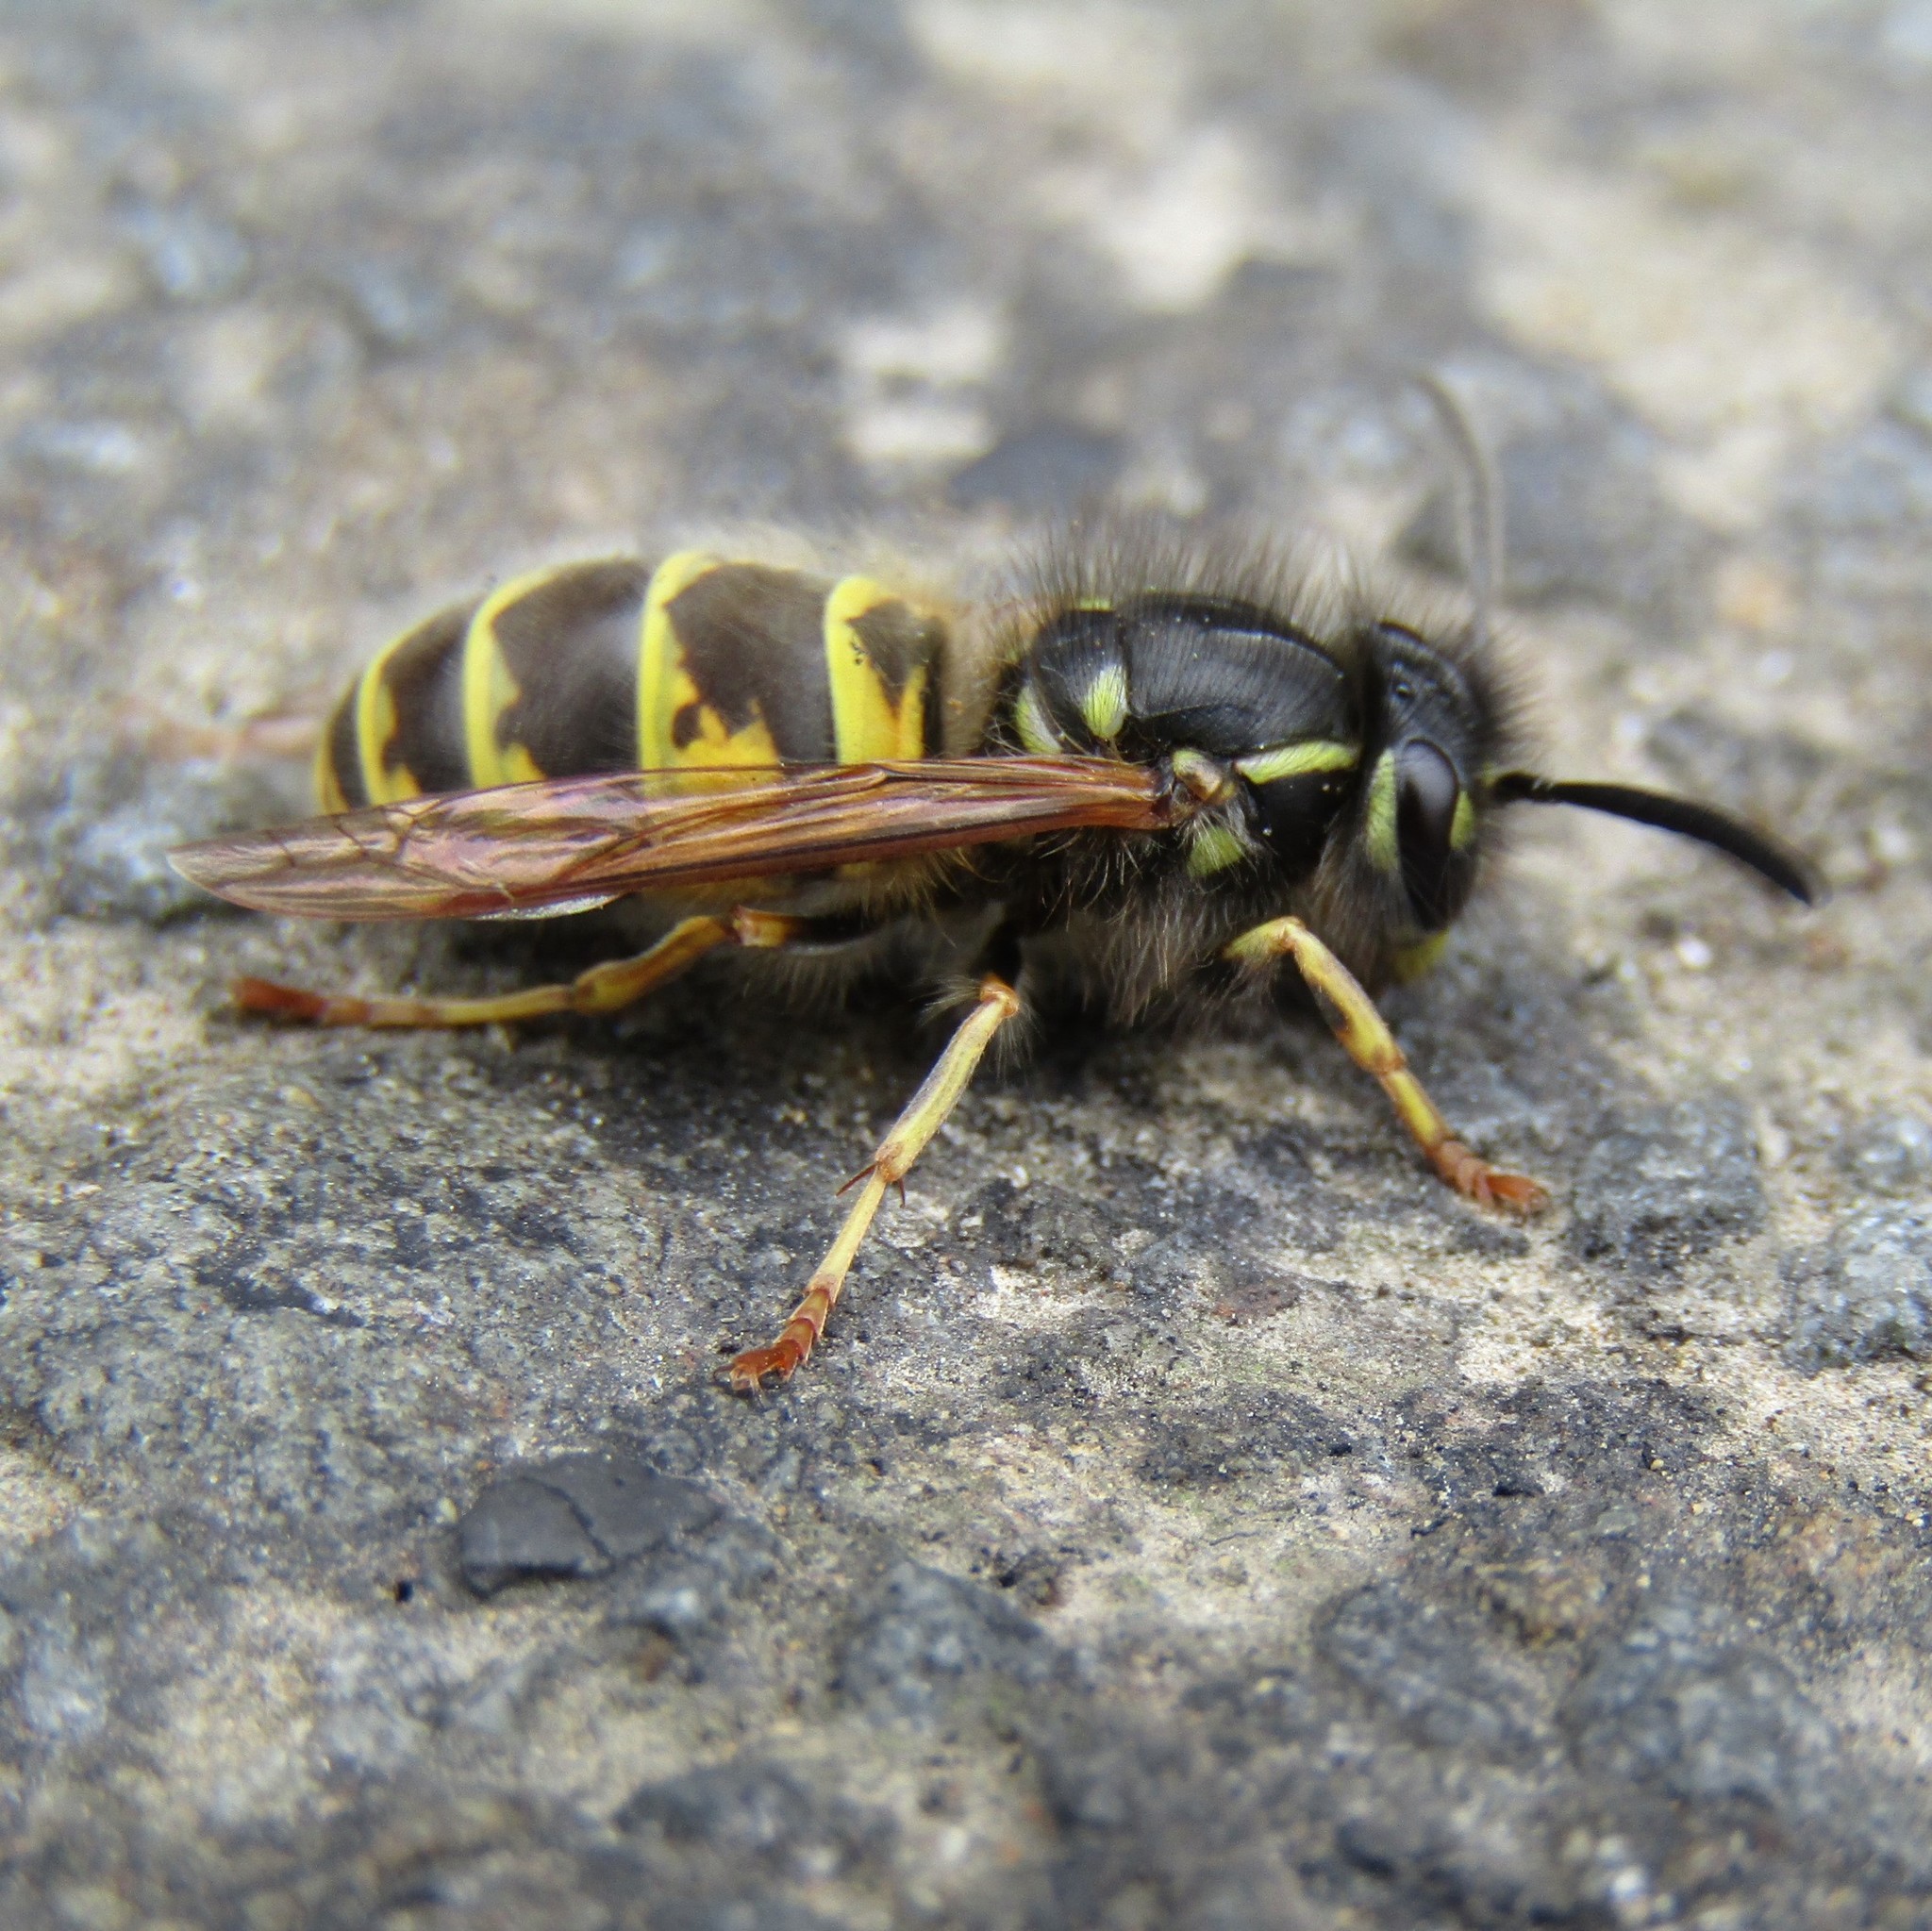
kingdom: Animalia
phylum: Arthropoda
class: Insecta
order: Hymenoptera
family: Vespidae
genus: Vespula
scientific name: Vespula vulgaris
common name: Common wasp
